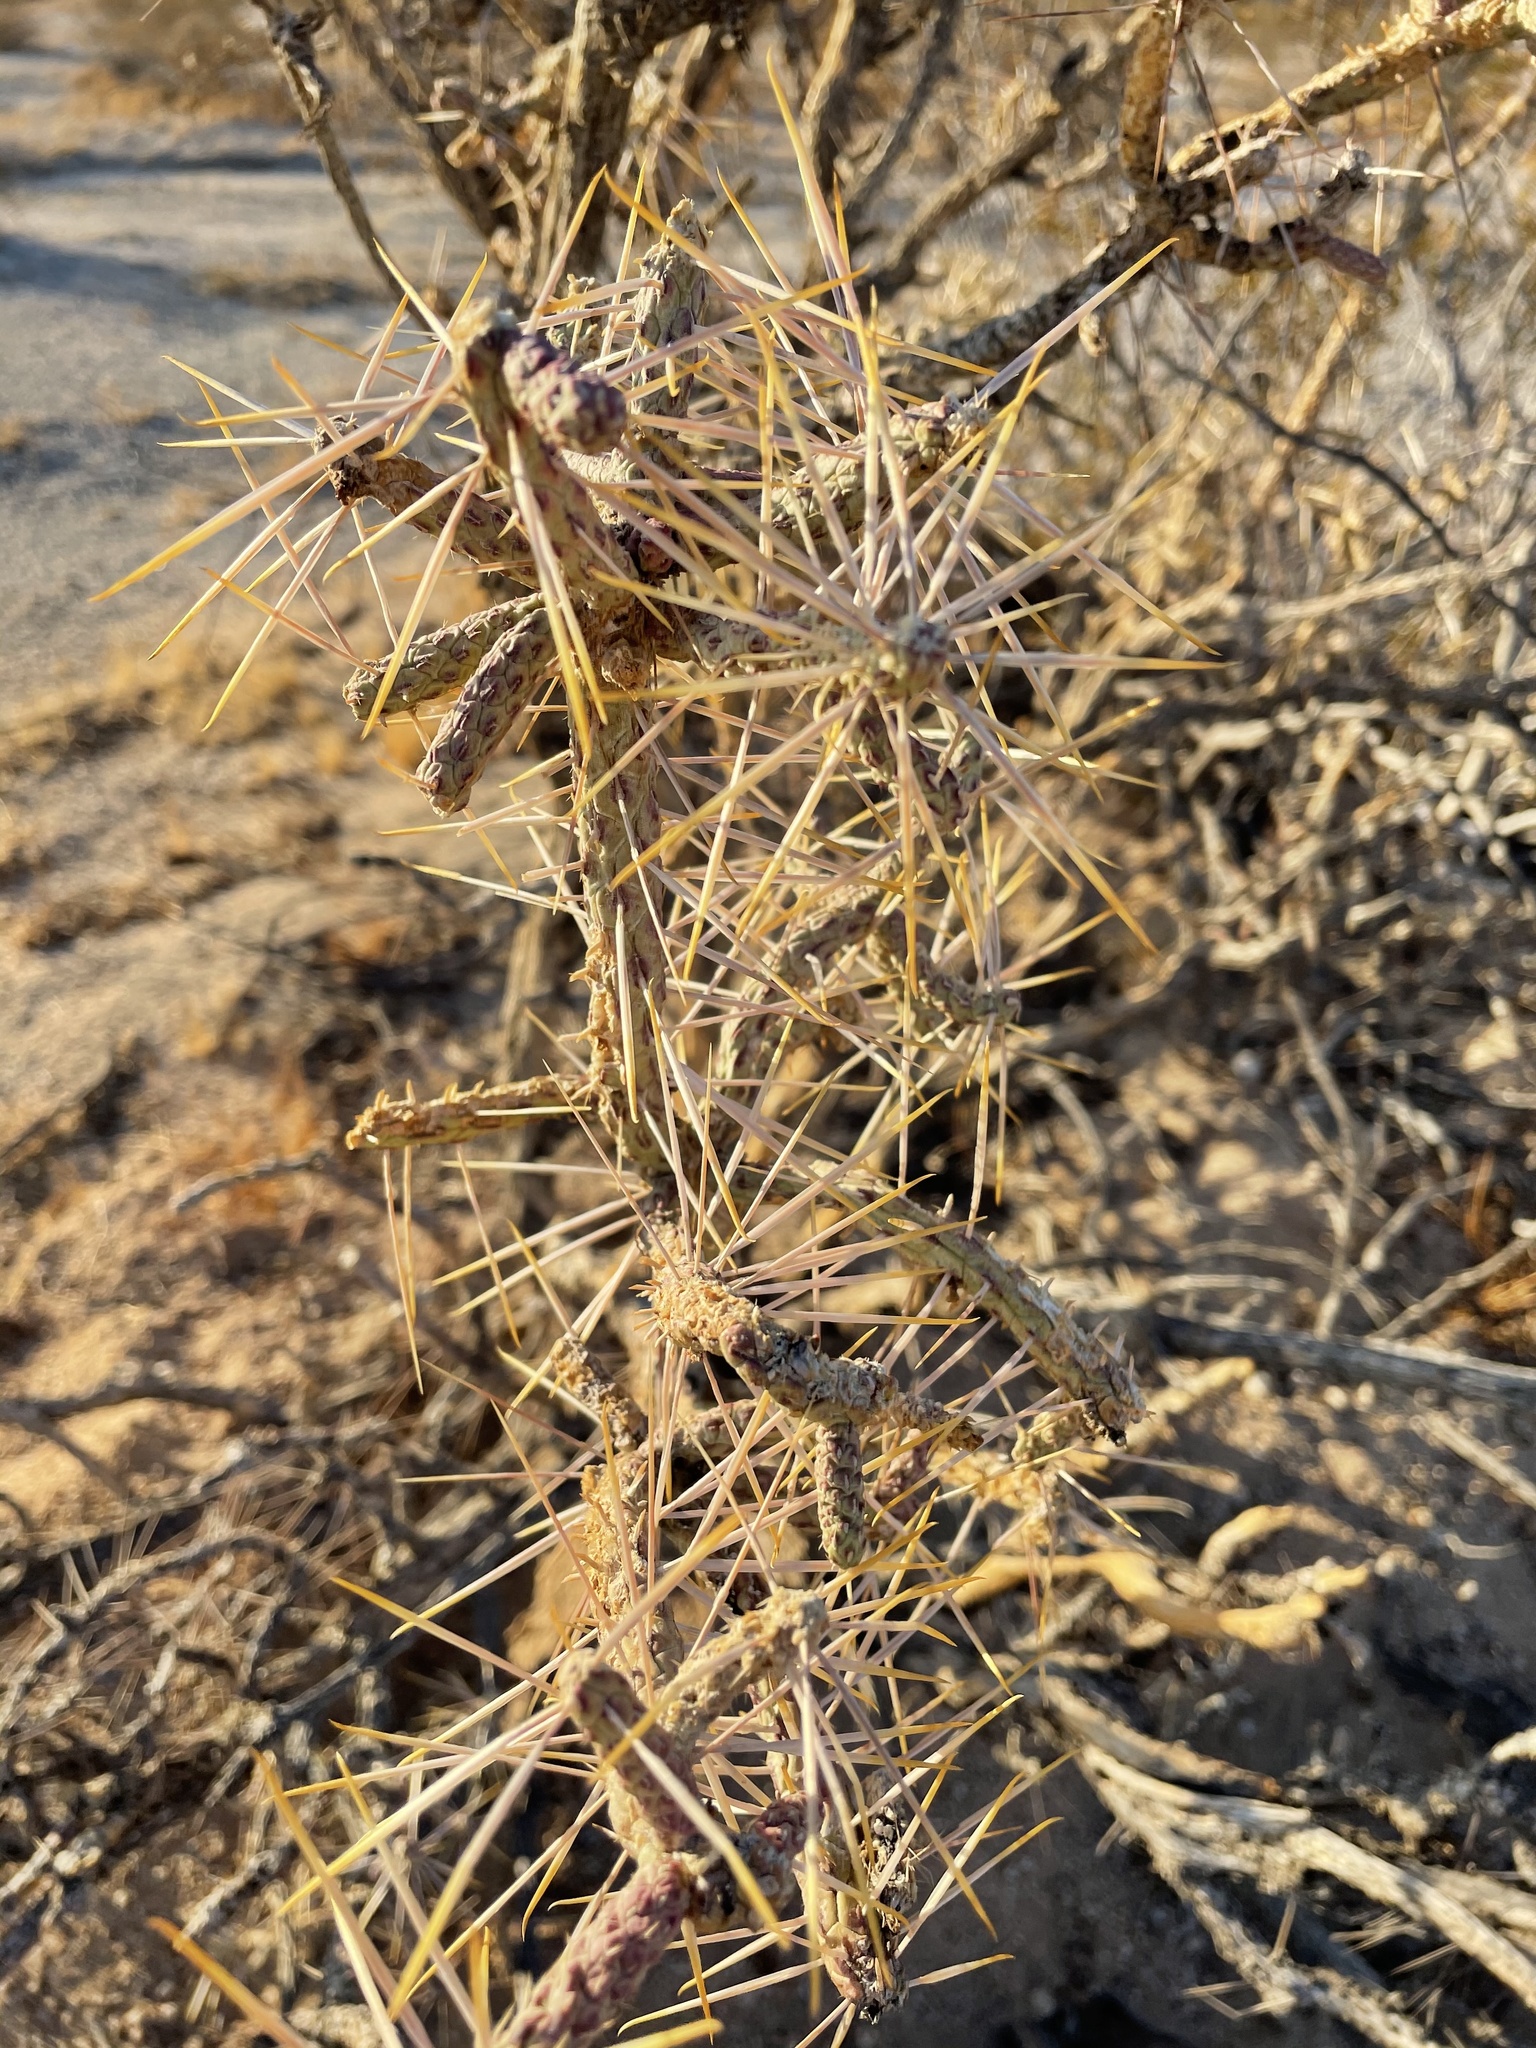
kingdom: Plantae
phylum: Tracheophyta
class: Magnoliopsida
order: Caryophyllales
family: Cactaceae
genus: Cylindropuntia
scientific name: Cylindropuntia ramosissima
